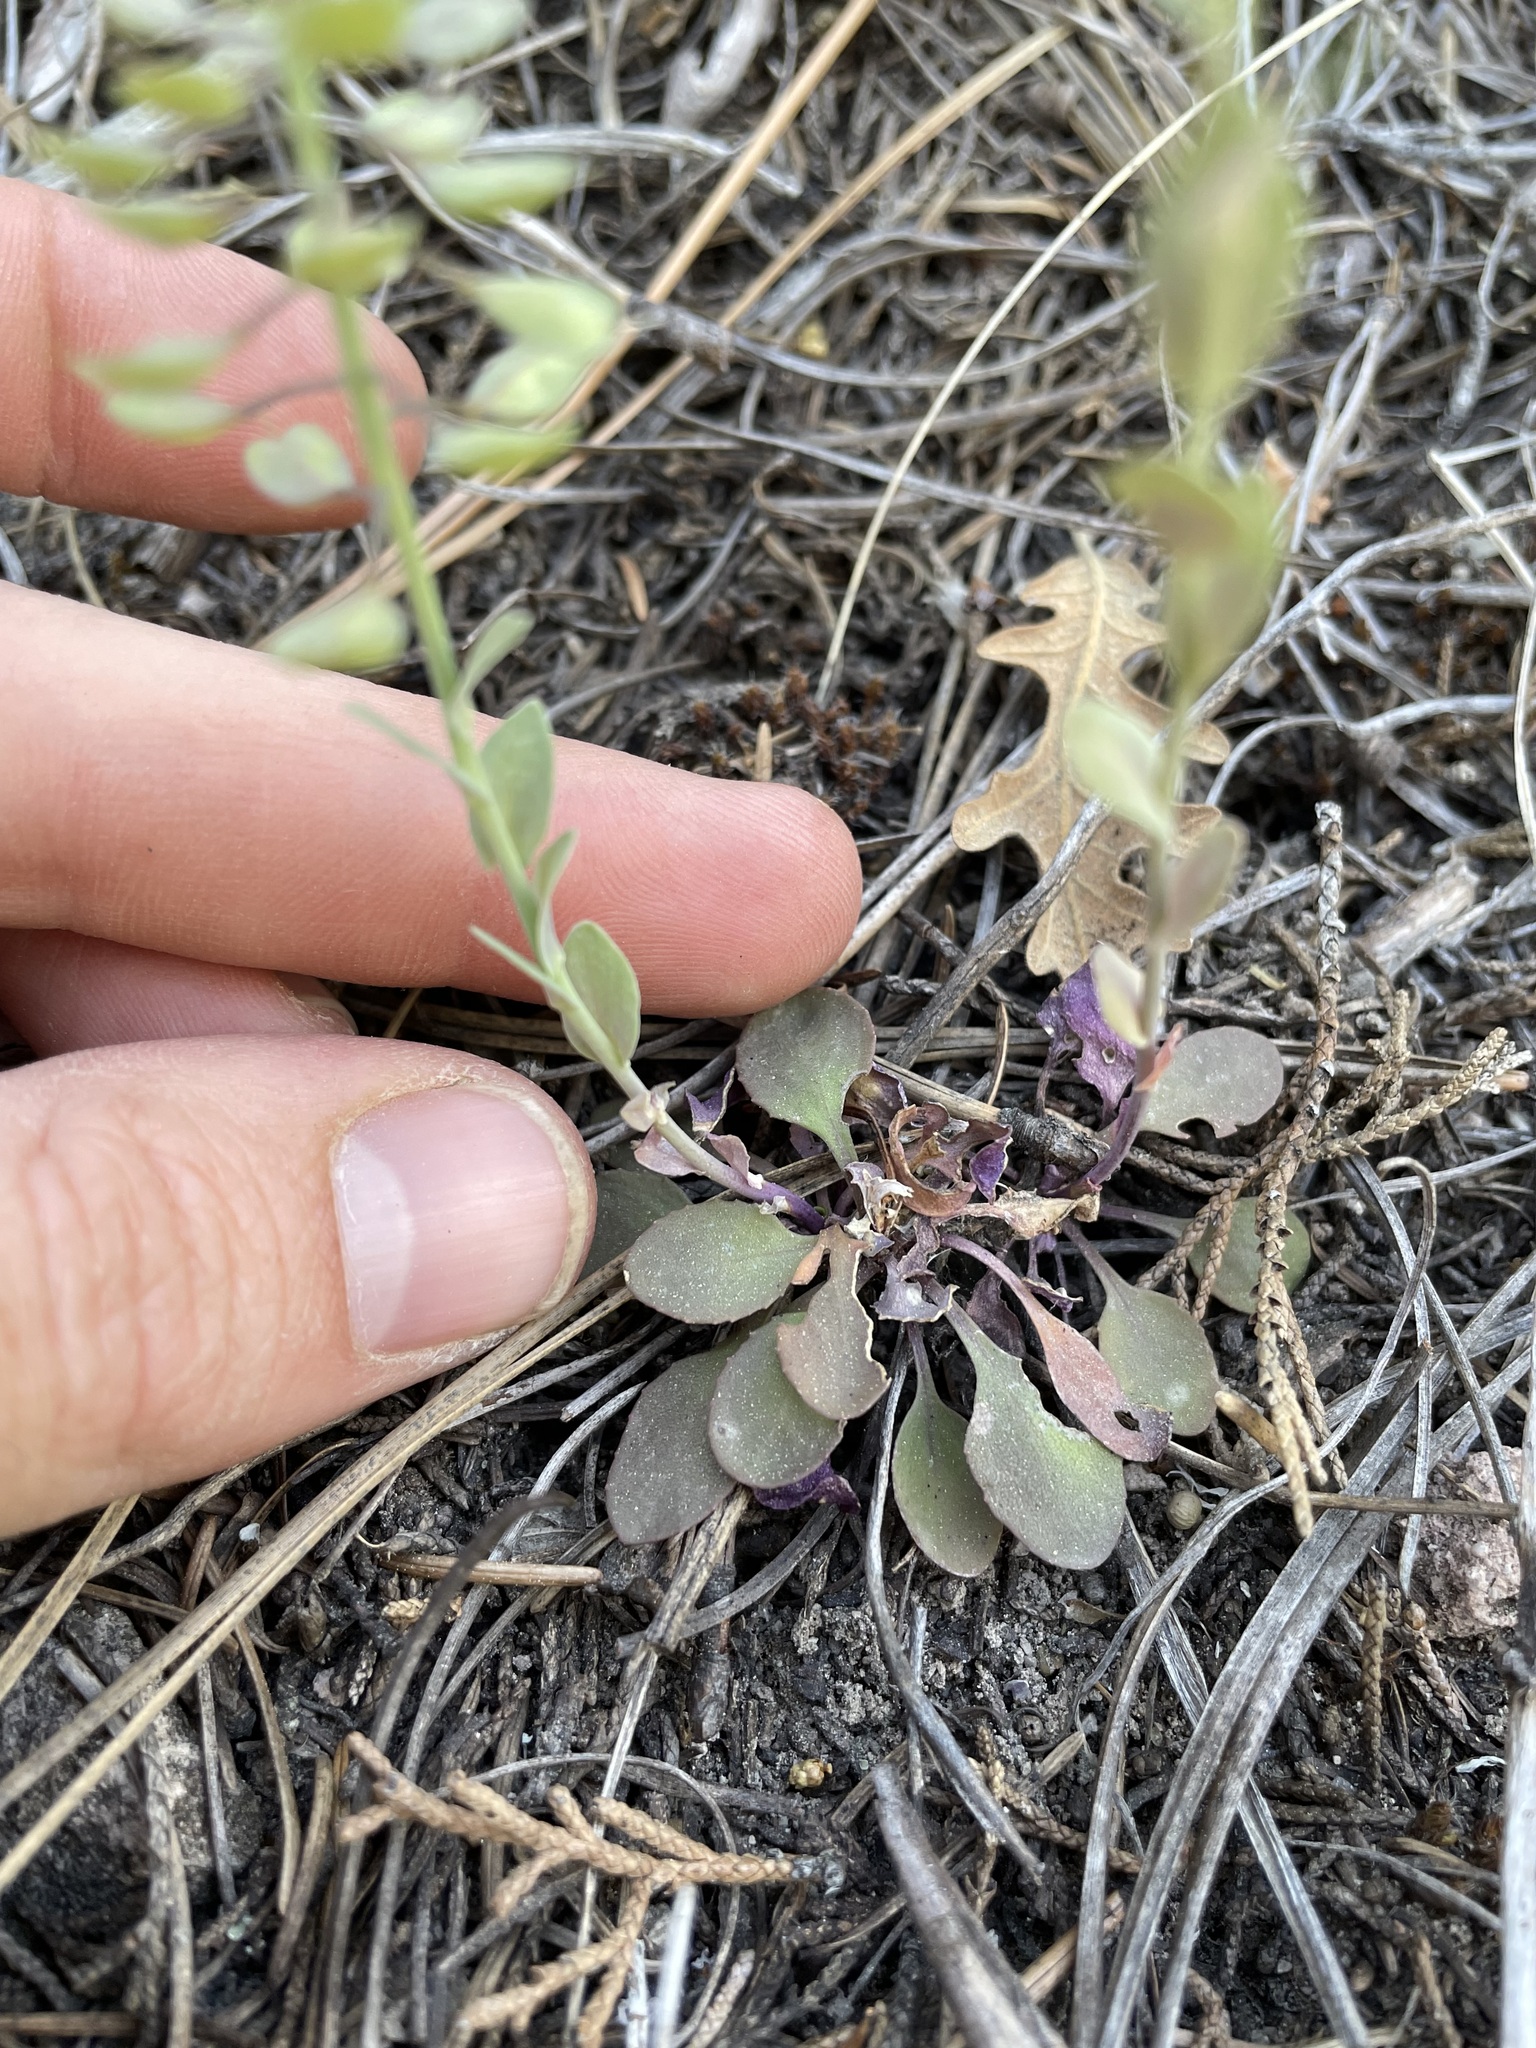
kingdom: Plantae
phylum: Tracheophyta
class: Magnoliopsida
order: Brassicales
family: Brassicaceae
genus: Noccaea
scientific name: Noccaea fendleri
